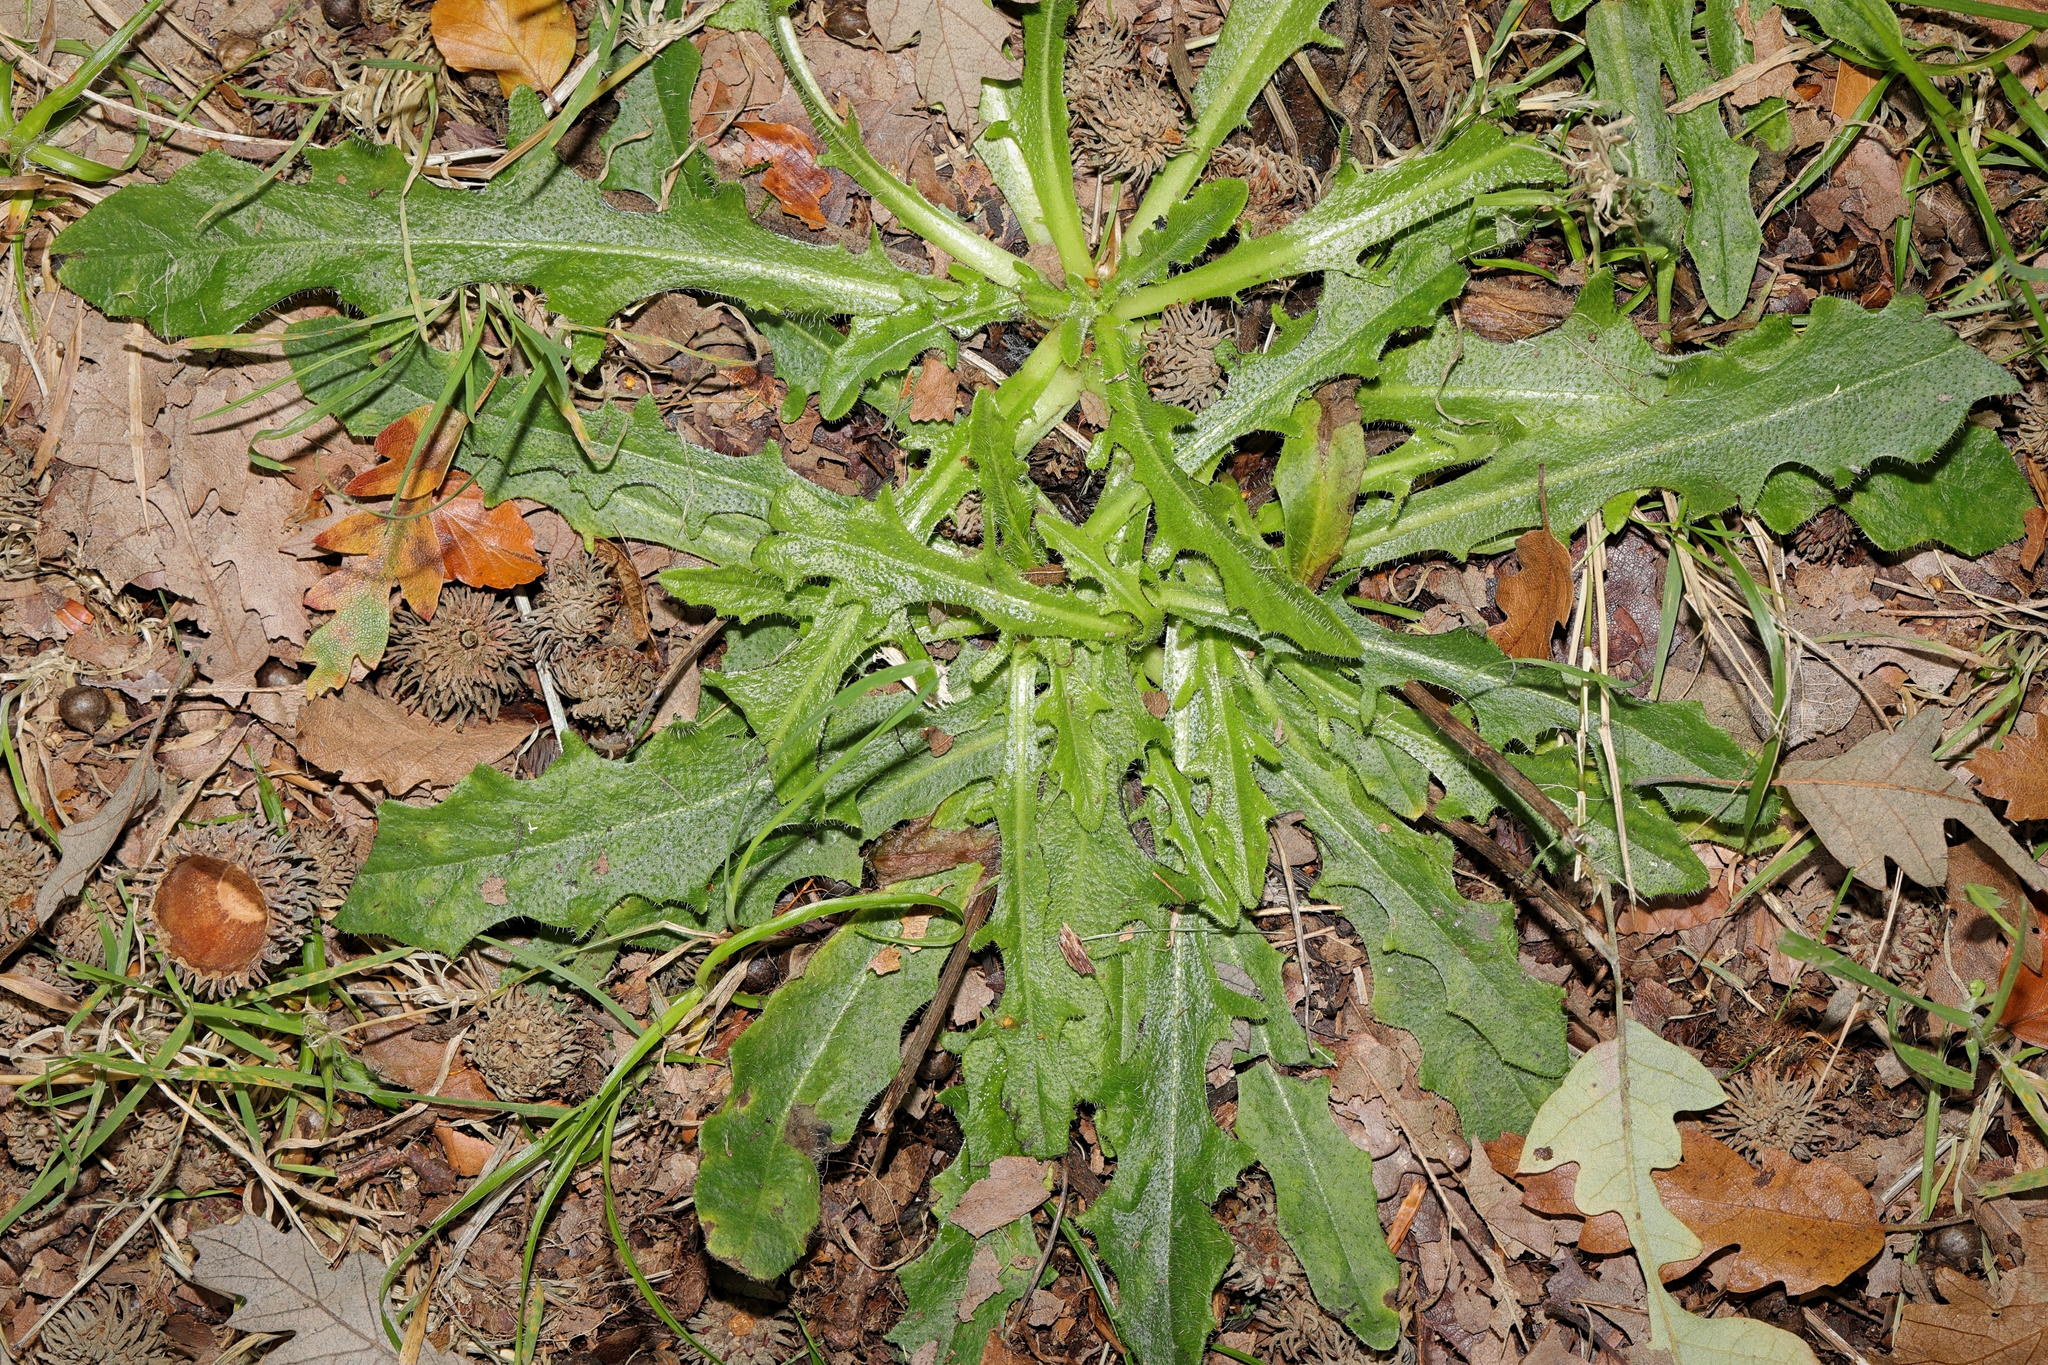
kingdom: Plantae
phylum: Tracheophyta
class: Magnoliopsida
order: Asterales
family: Asteraceae
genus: Hypochaeris
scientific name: Hypochaeris radicata
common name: Flatweed
